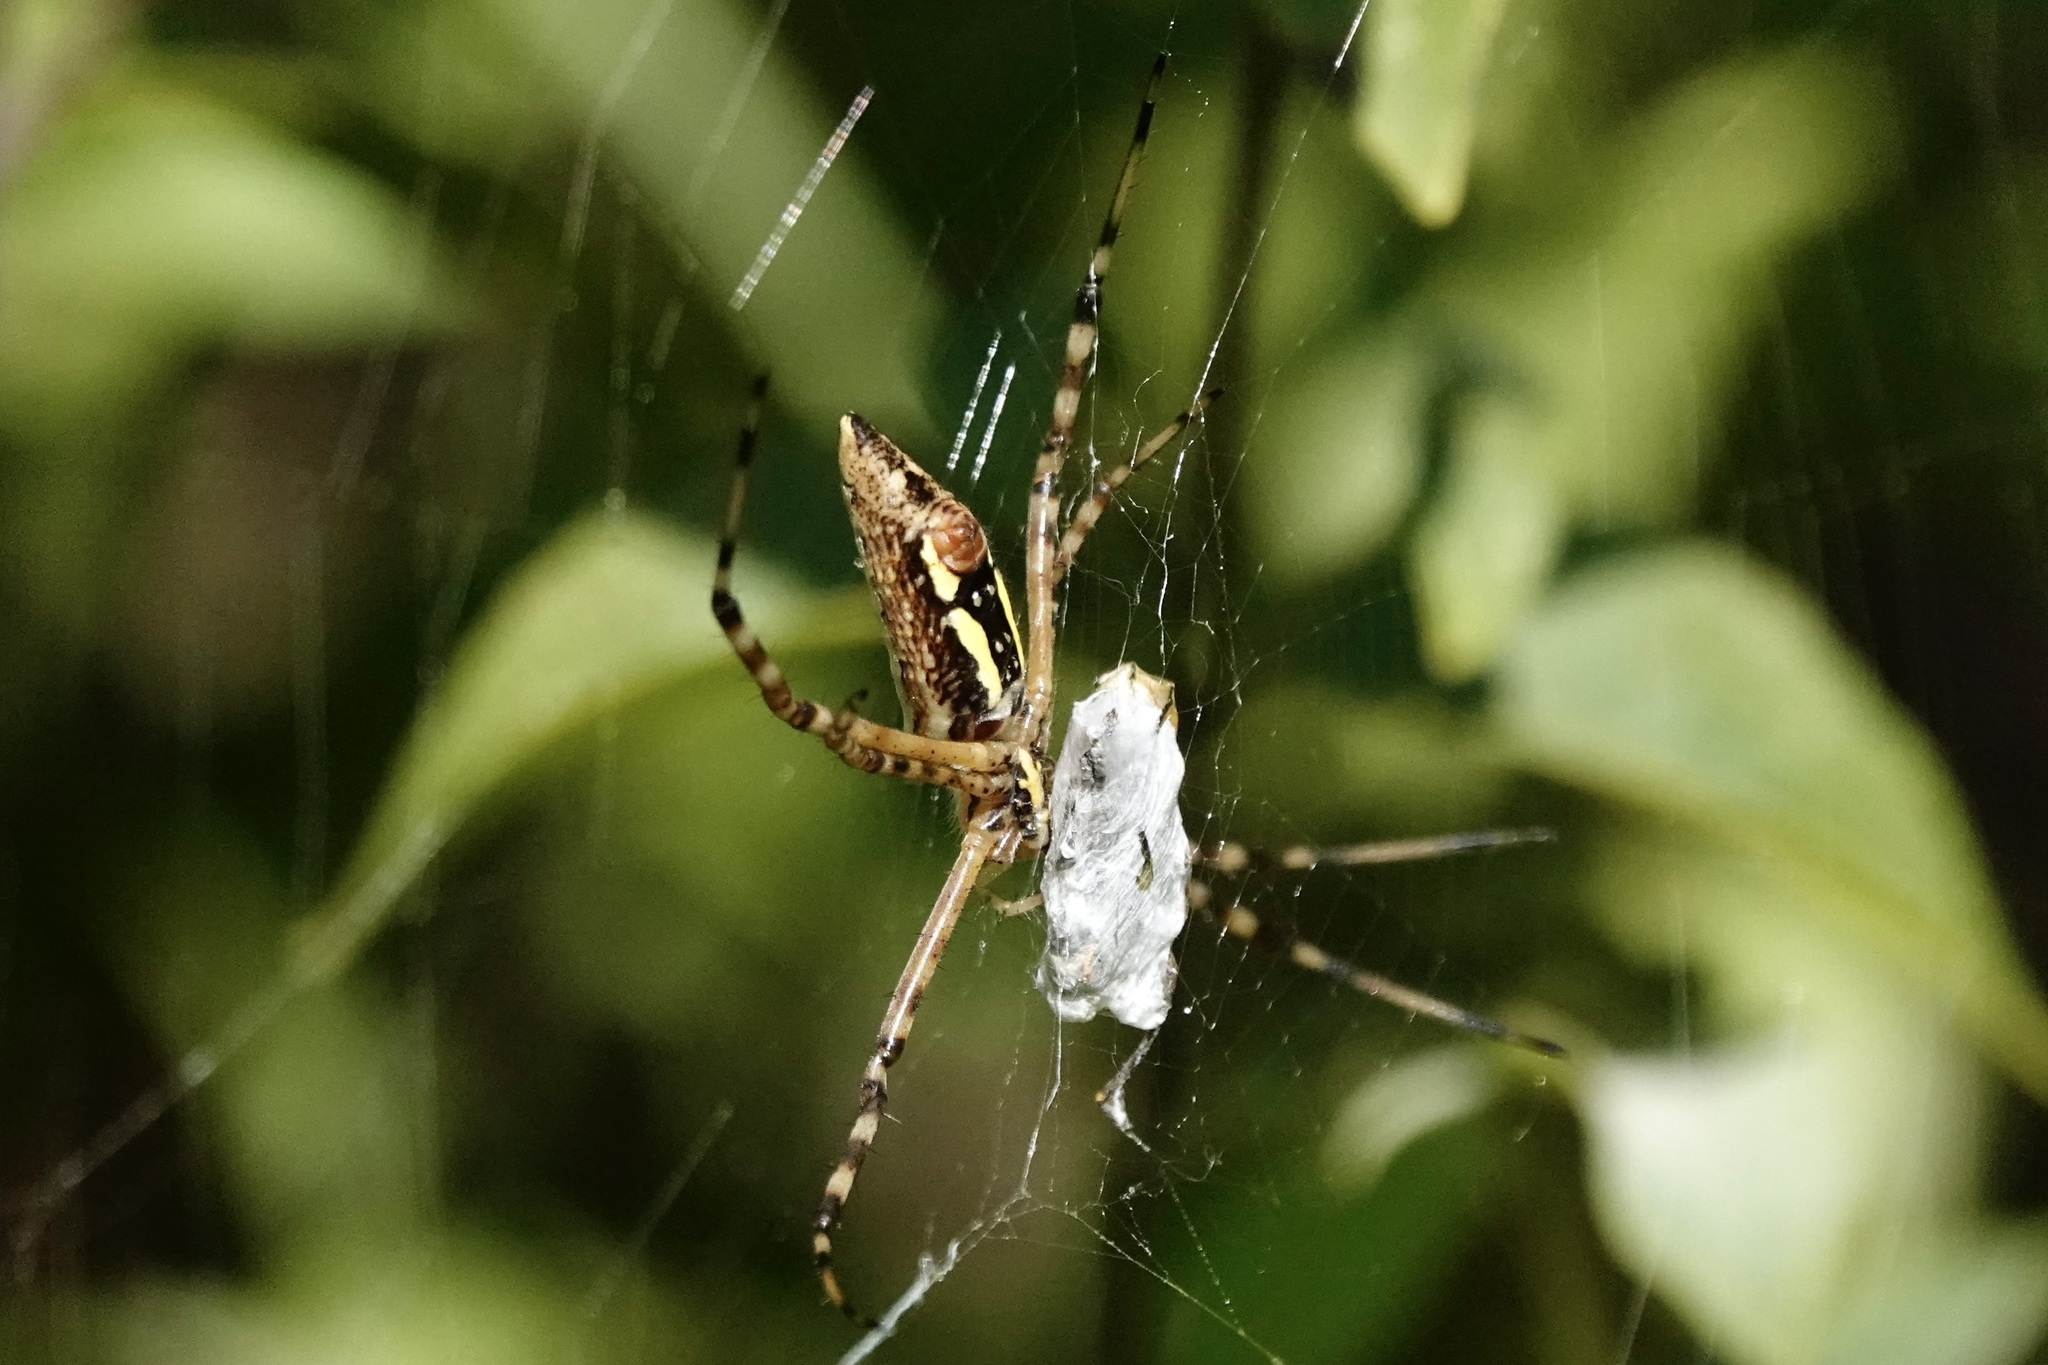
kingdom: Animalia
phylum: Arthropoda
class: Arachnida
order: Araneae
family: Araneidae
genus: Argiope
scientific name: Argiope trifasciata
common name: Banded garden spider
